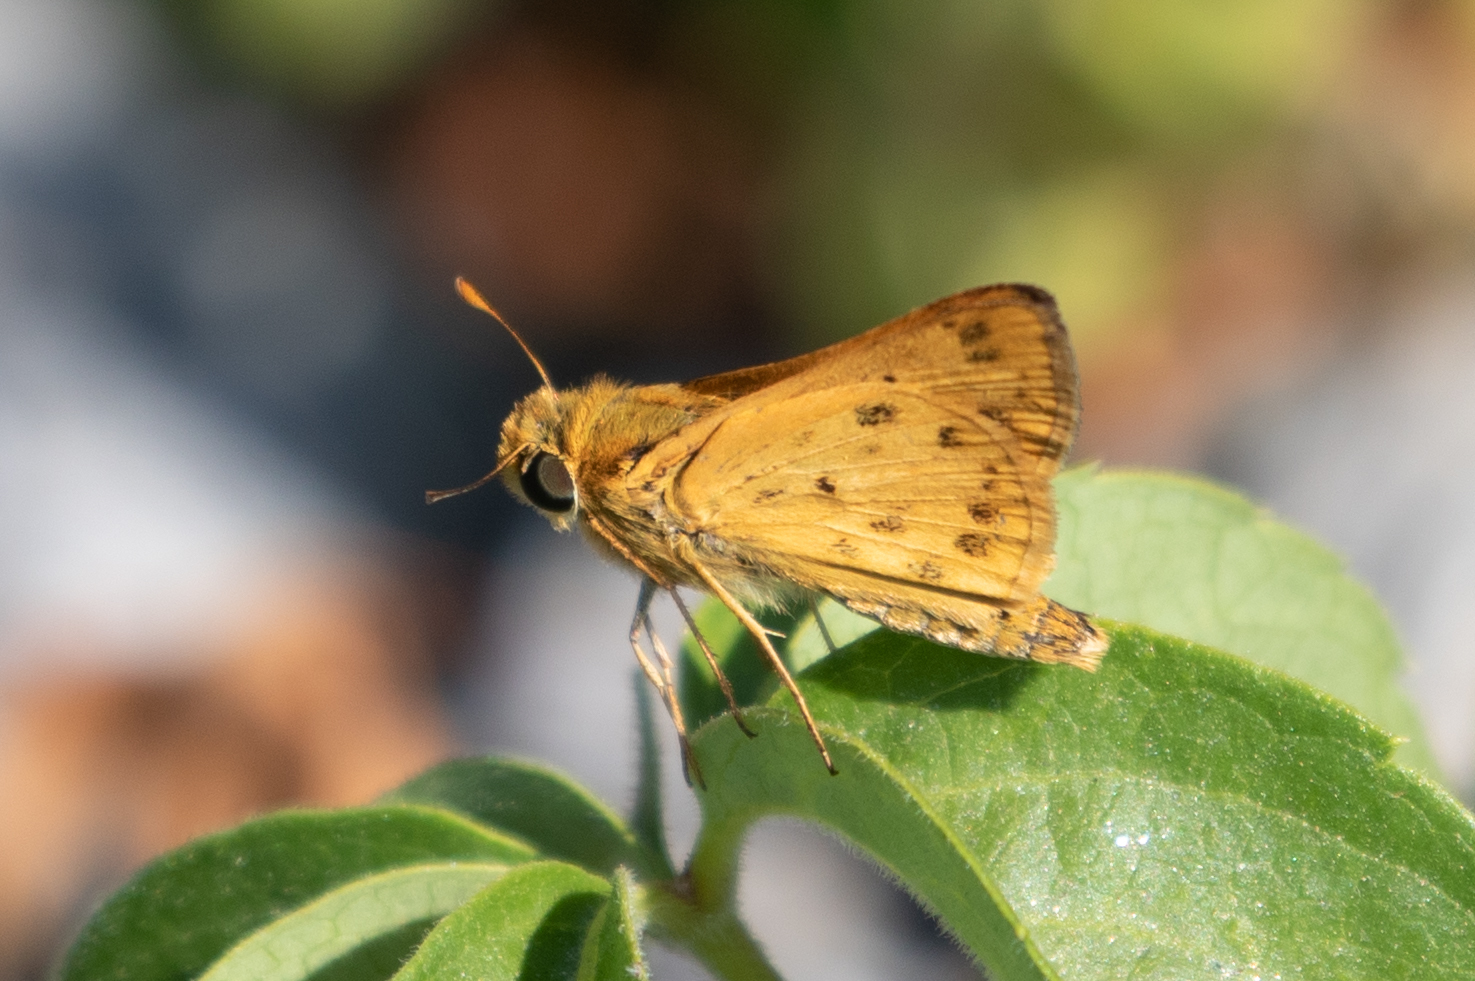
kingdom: Animalia
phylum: Arthropoda
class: Insecta
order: Lepidoptera
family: Hesperiidae
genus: Hylephila
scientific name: Hylephila phyleus
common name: Fiery skipper
